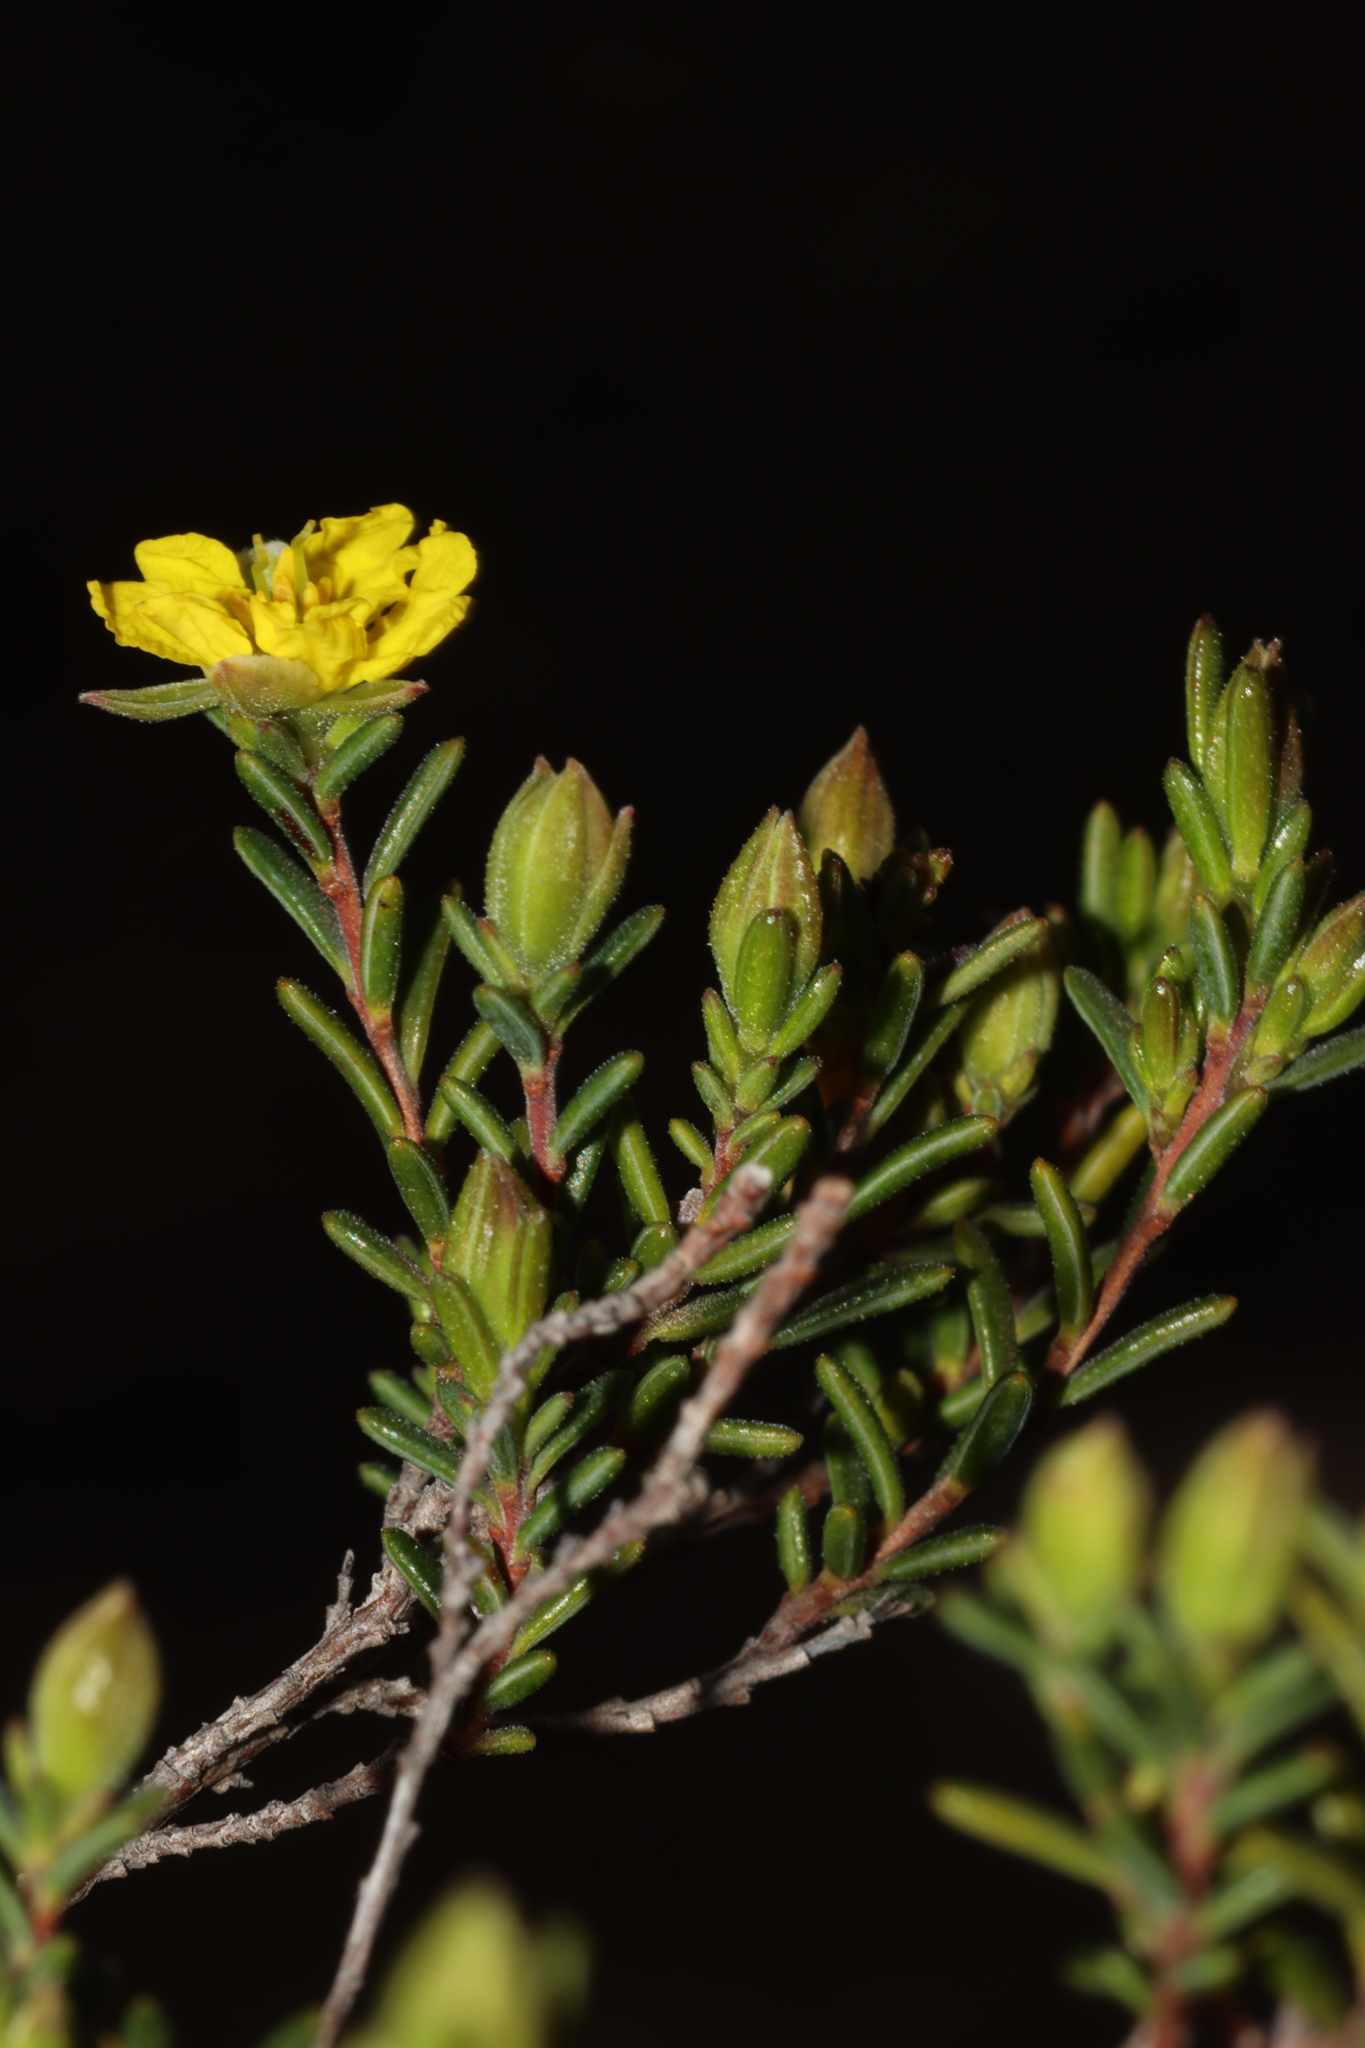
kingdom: Plantae
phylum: Tracheophyta
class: Magnoliopsida
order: Dilleniales
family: Dilleniaceae
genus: Hibbertia
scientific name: Hibbertia devitata
